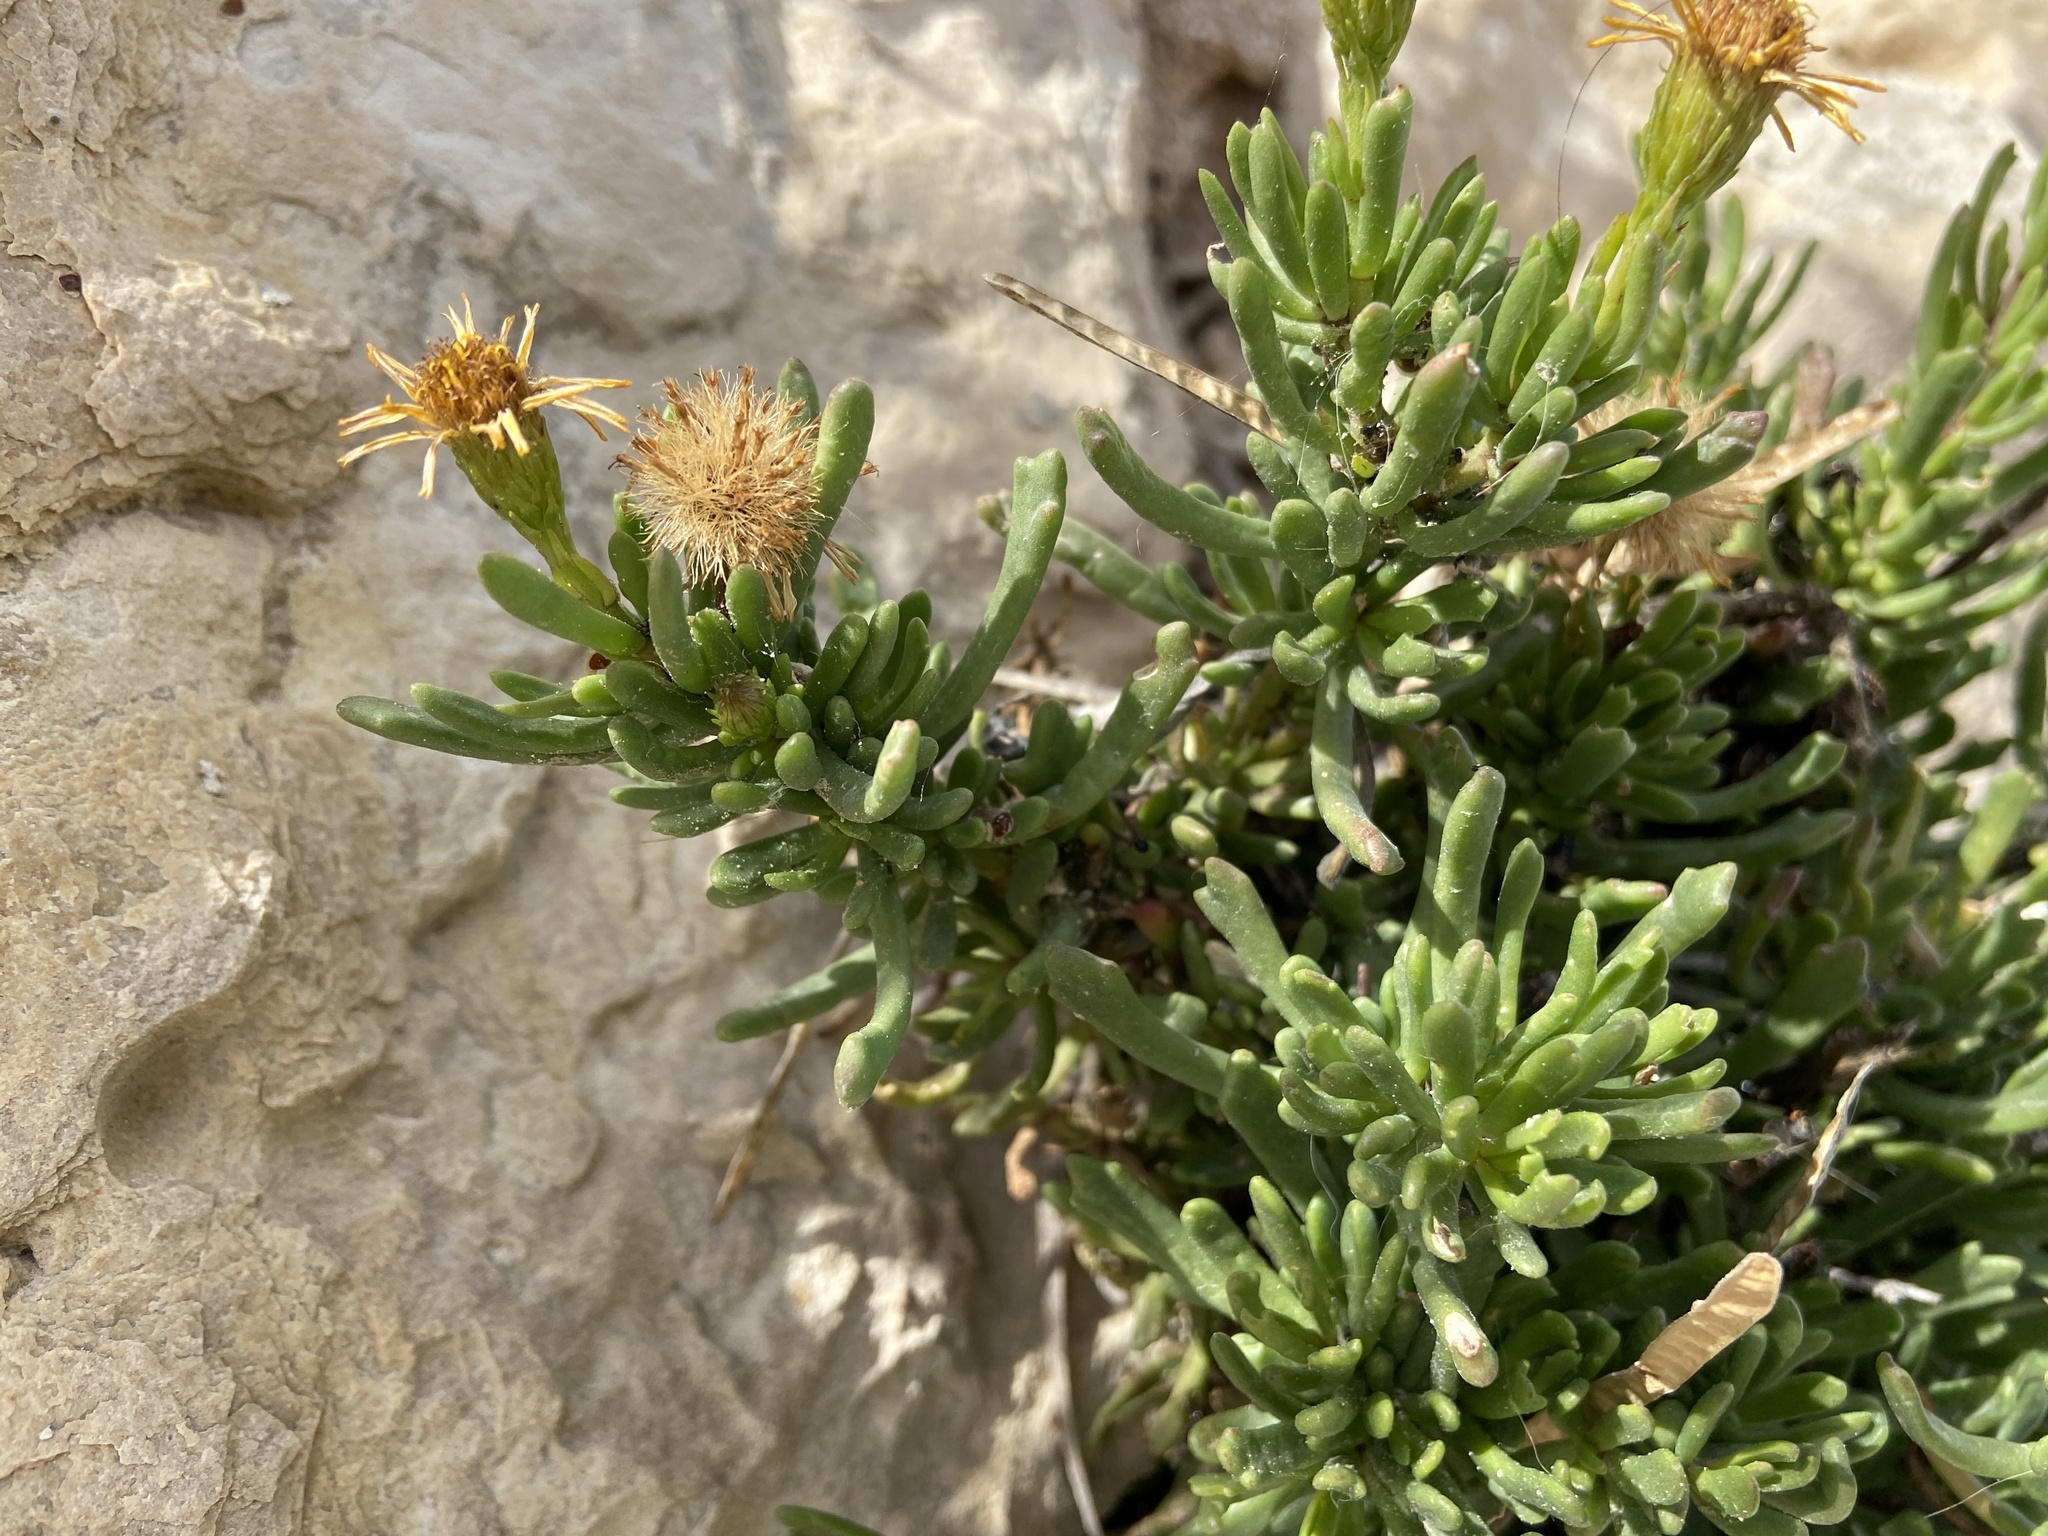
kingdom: Plantae
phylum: Tracheophyta
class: Magnoliopsida
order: Asterales
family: Asteraceae
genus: Limbarda
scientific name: Limbarda crithmoides
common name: Golden samphire
